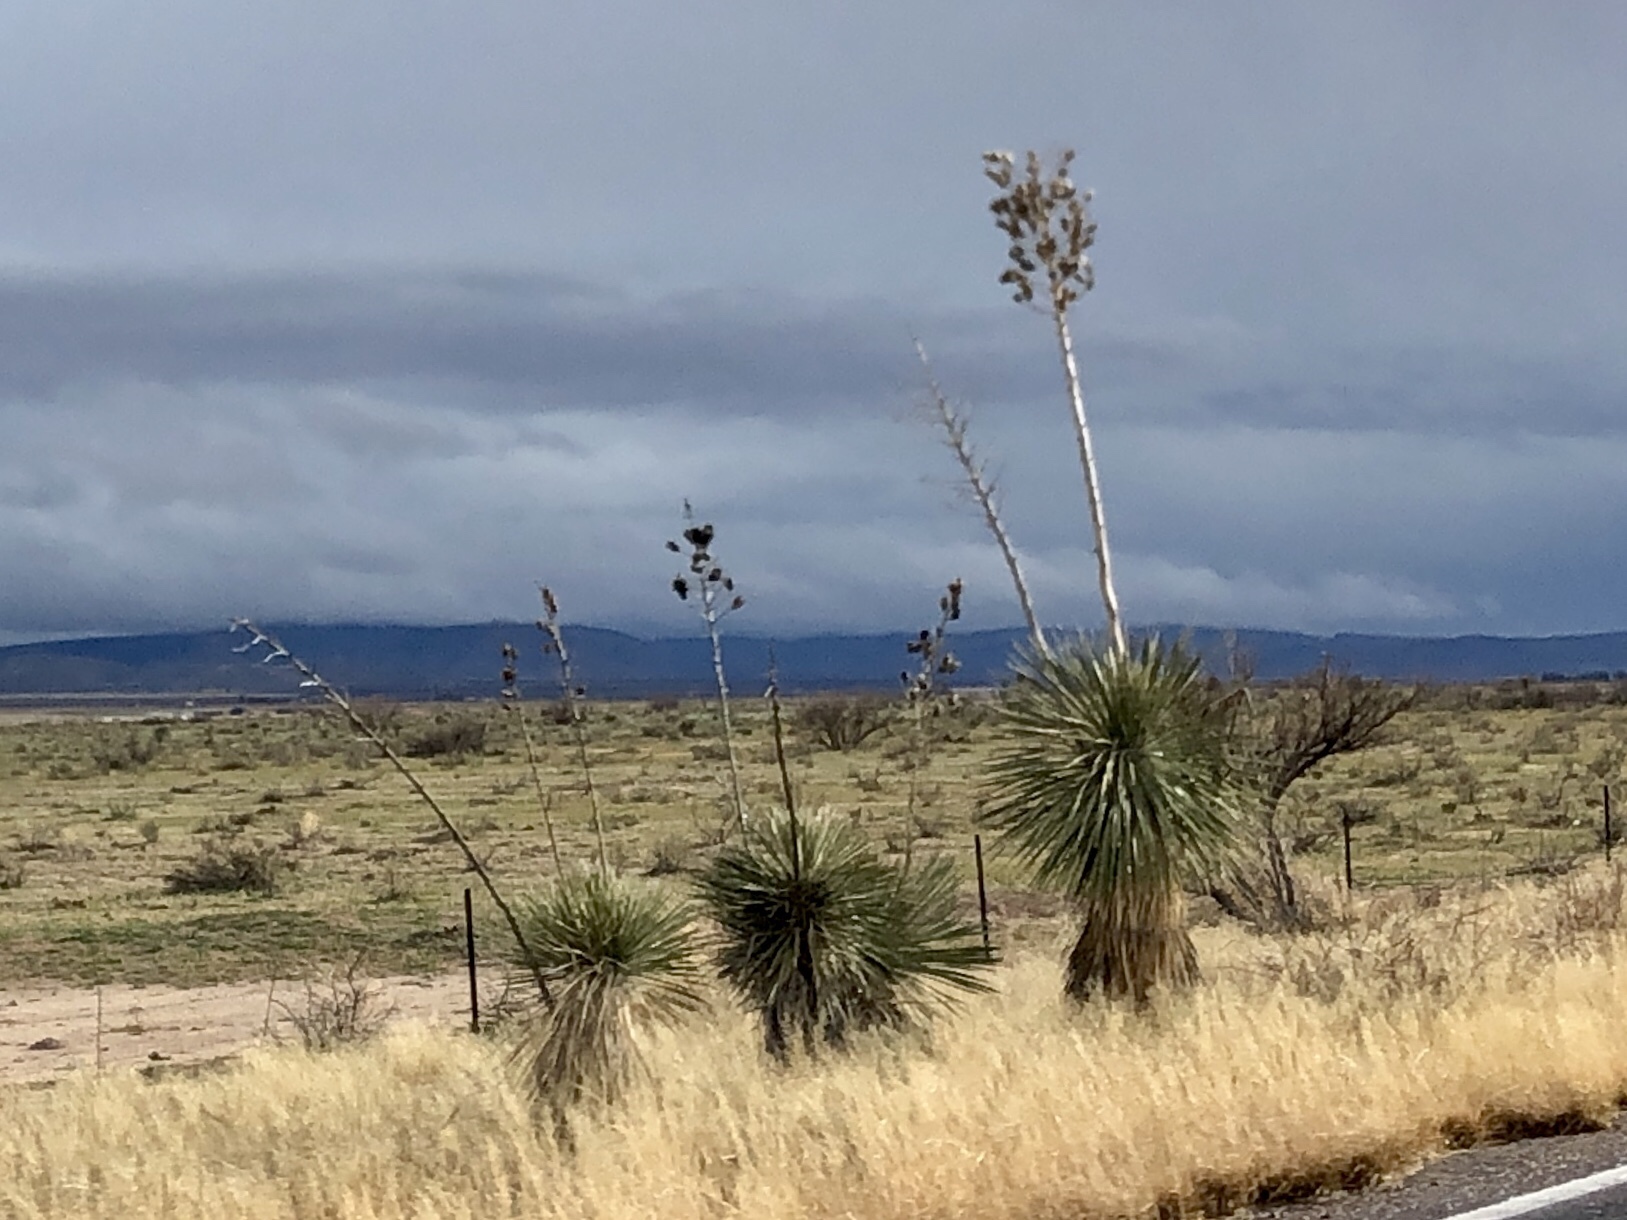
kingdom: Plantae
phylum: Tracheophyta
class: Liliopsida
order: Asparagales
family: Asparagaceae
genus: Yucca
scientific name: Yucca elata
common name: Palmella
